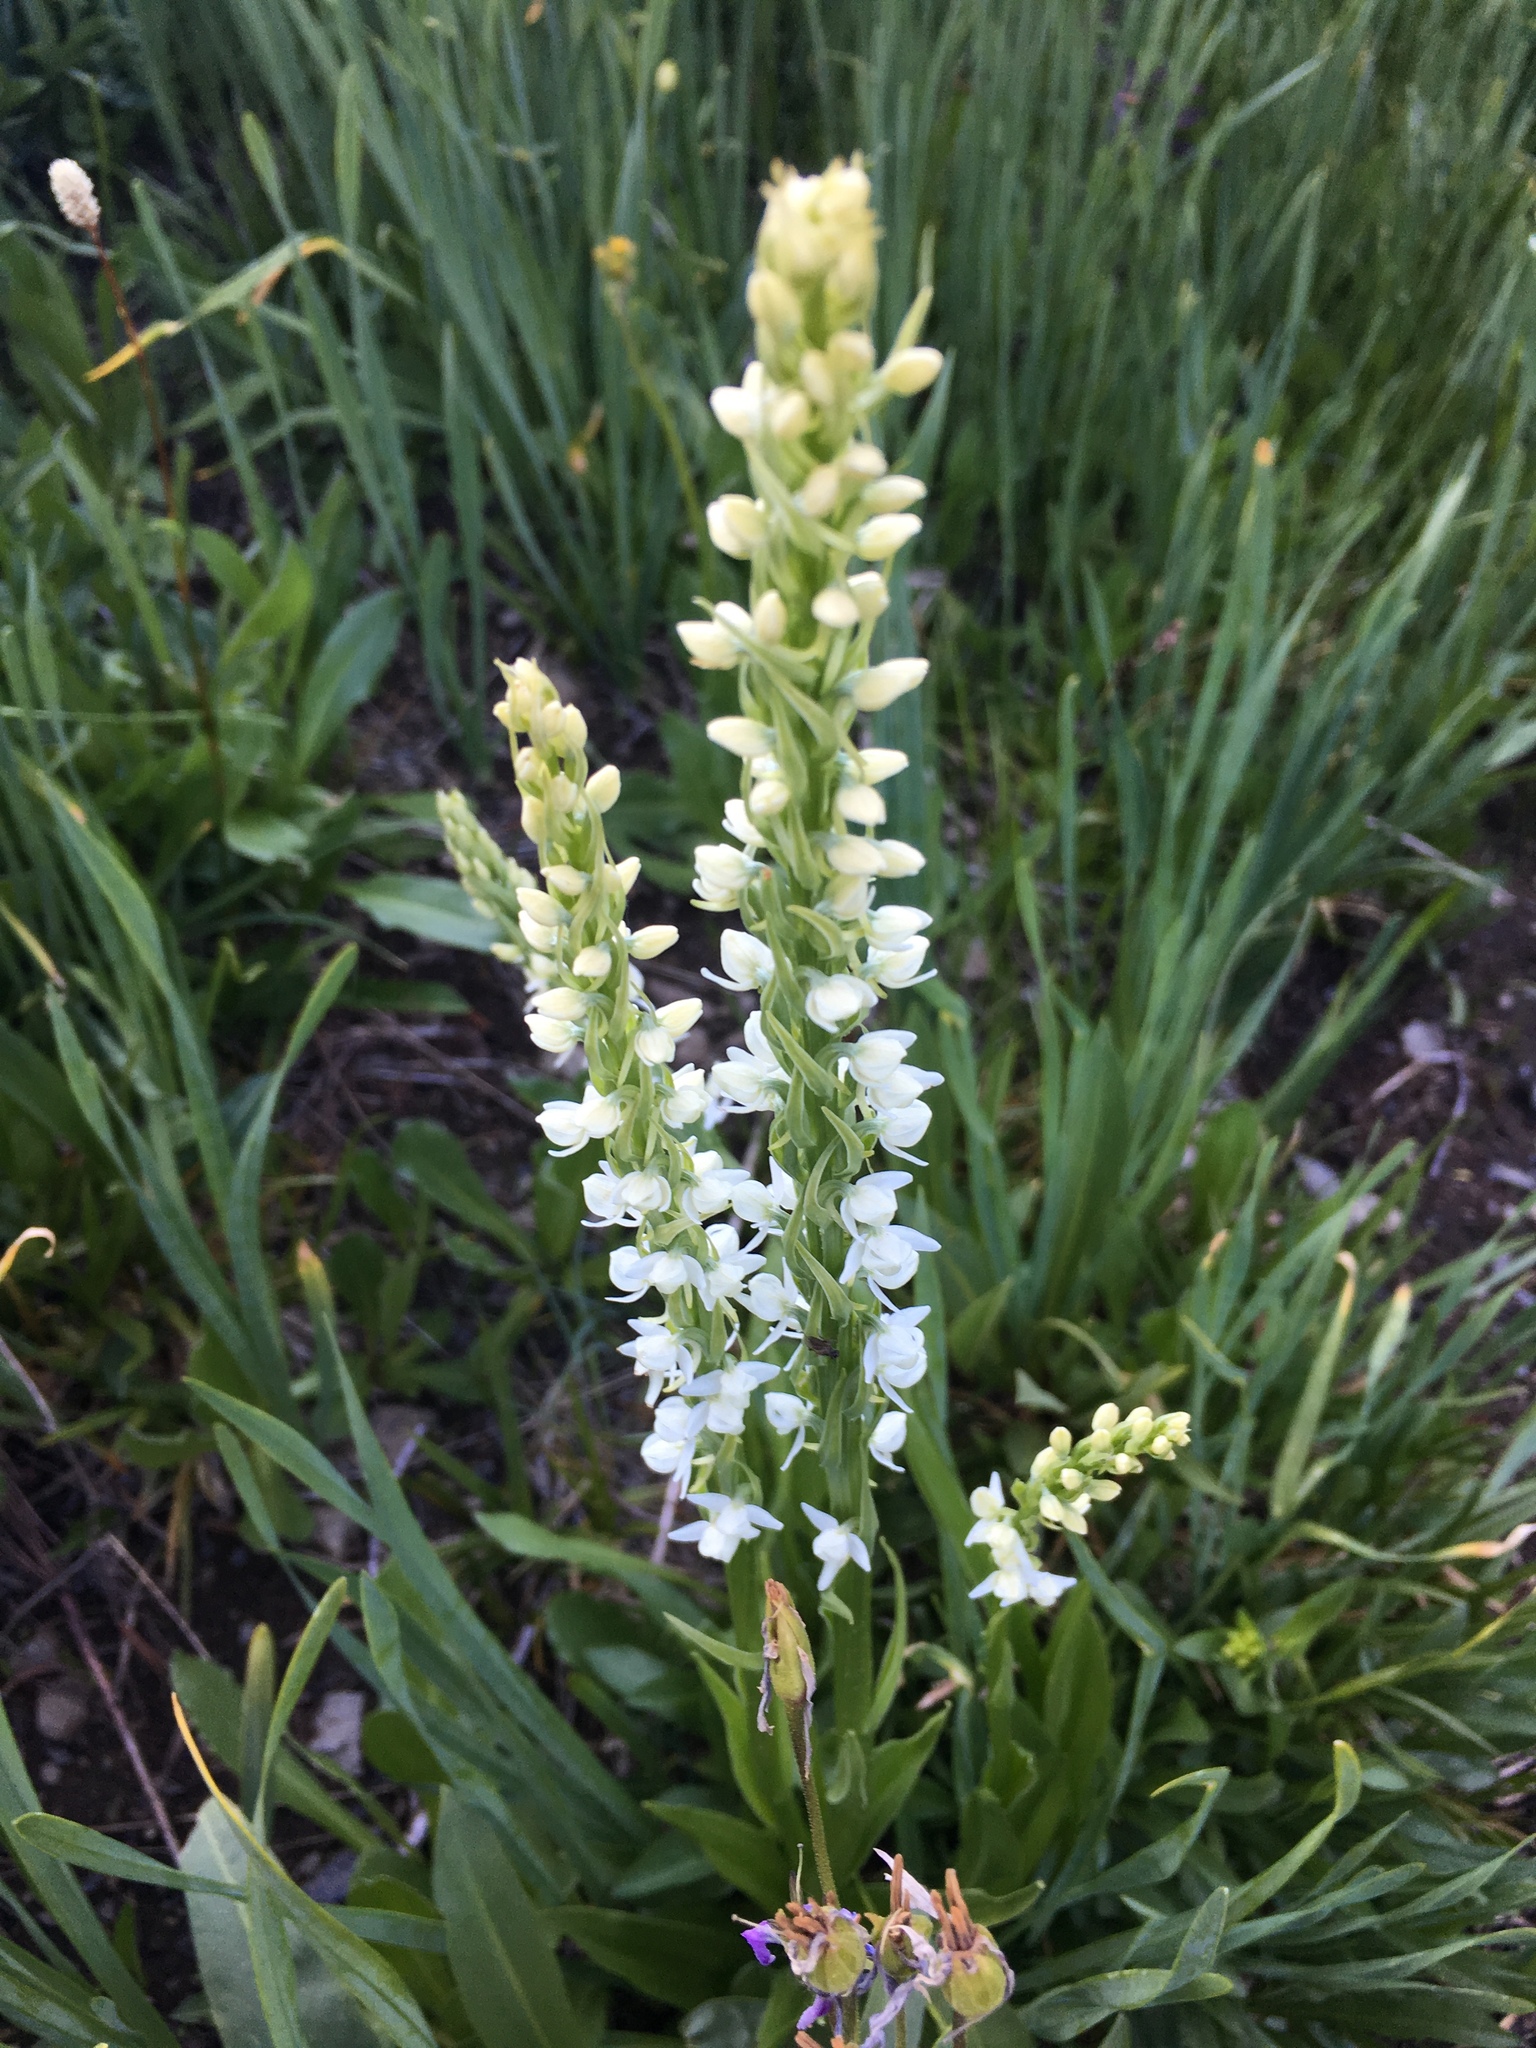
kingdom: Plantae
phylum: Tracheophyta
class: Liliopsida
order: Asparagales
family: Orchidaceae
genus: Platanthera
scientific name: Platanthera dilatata
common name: Bog candles
